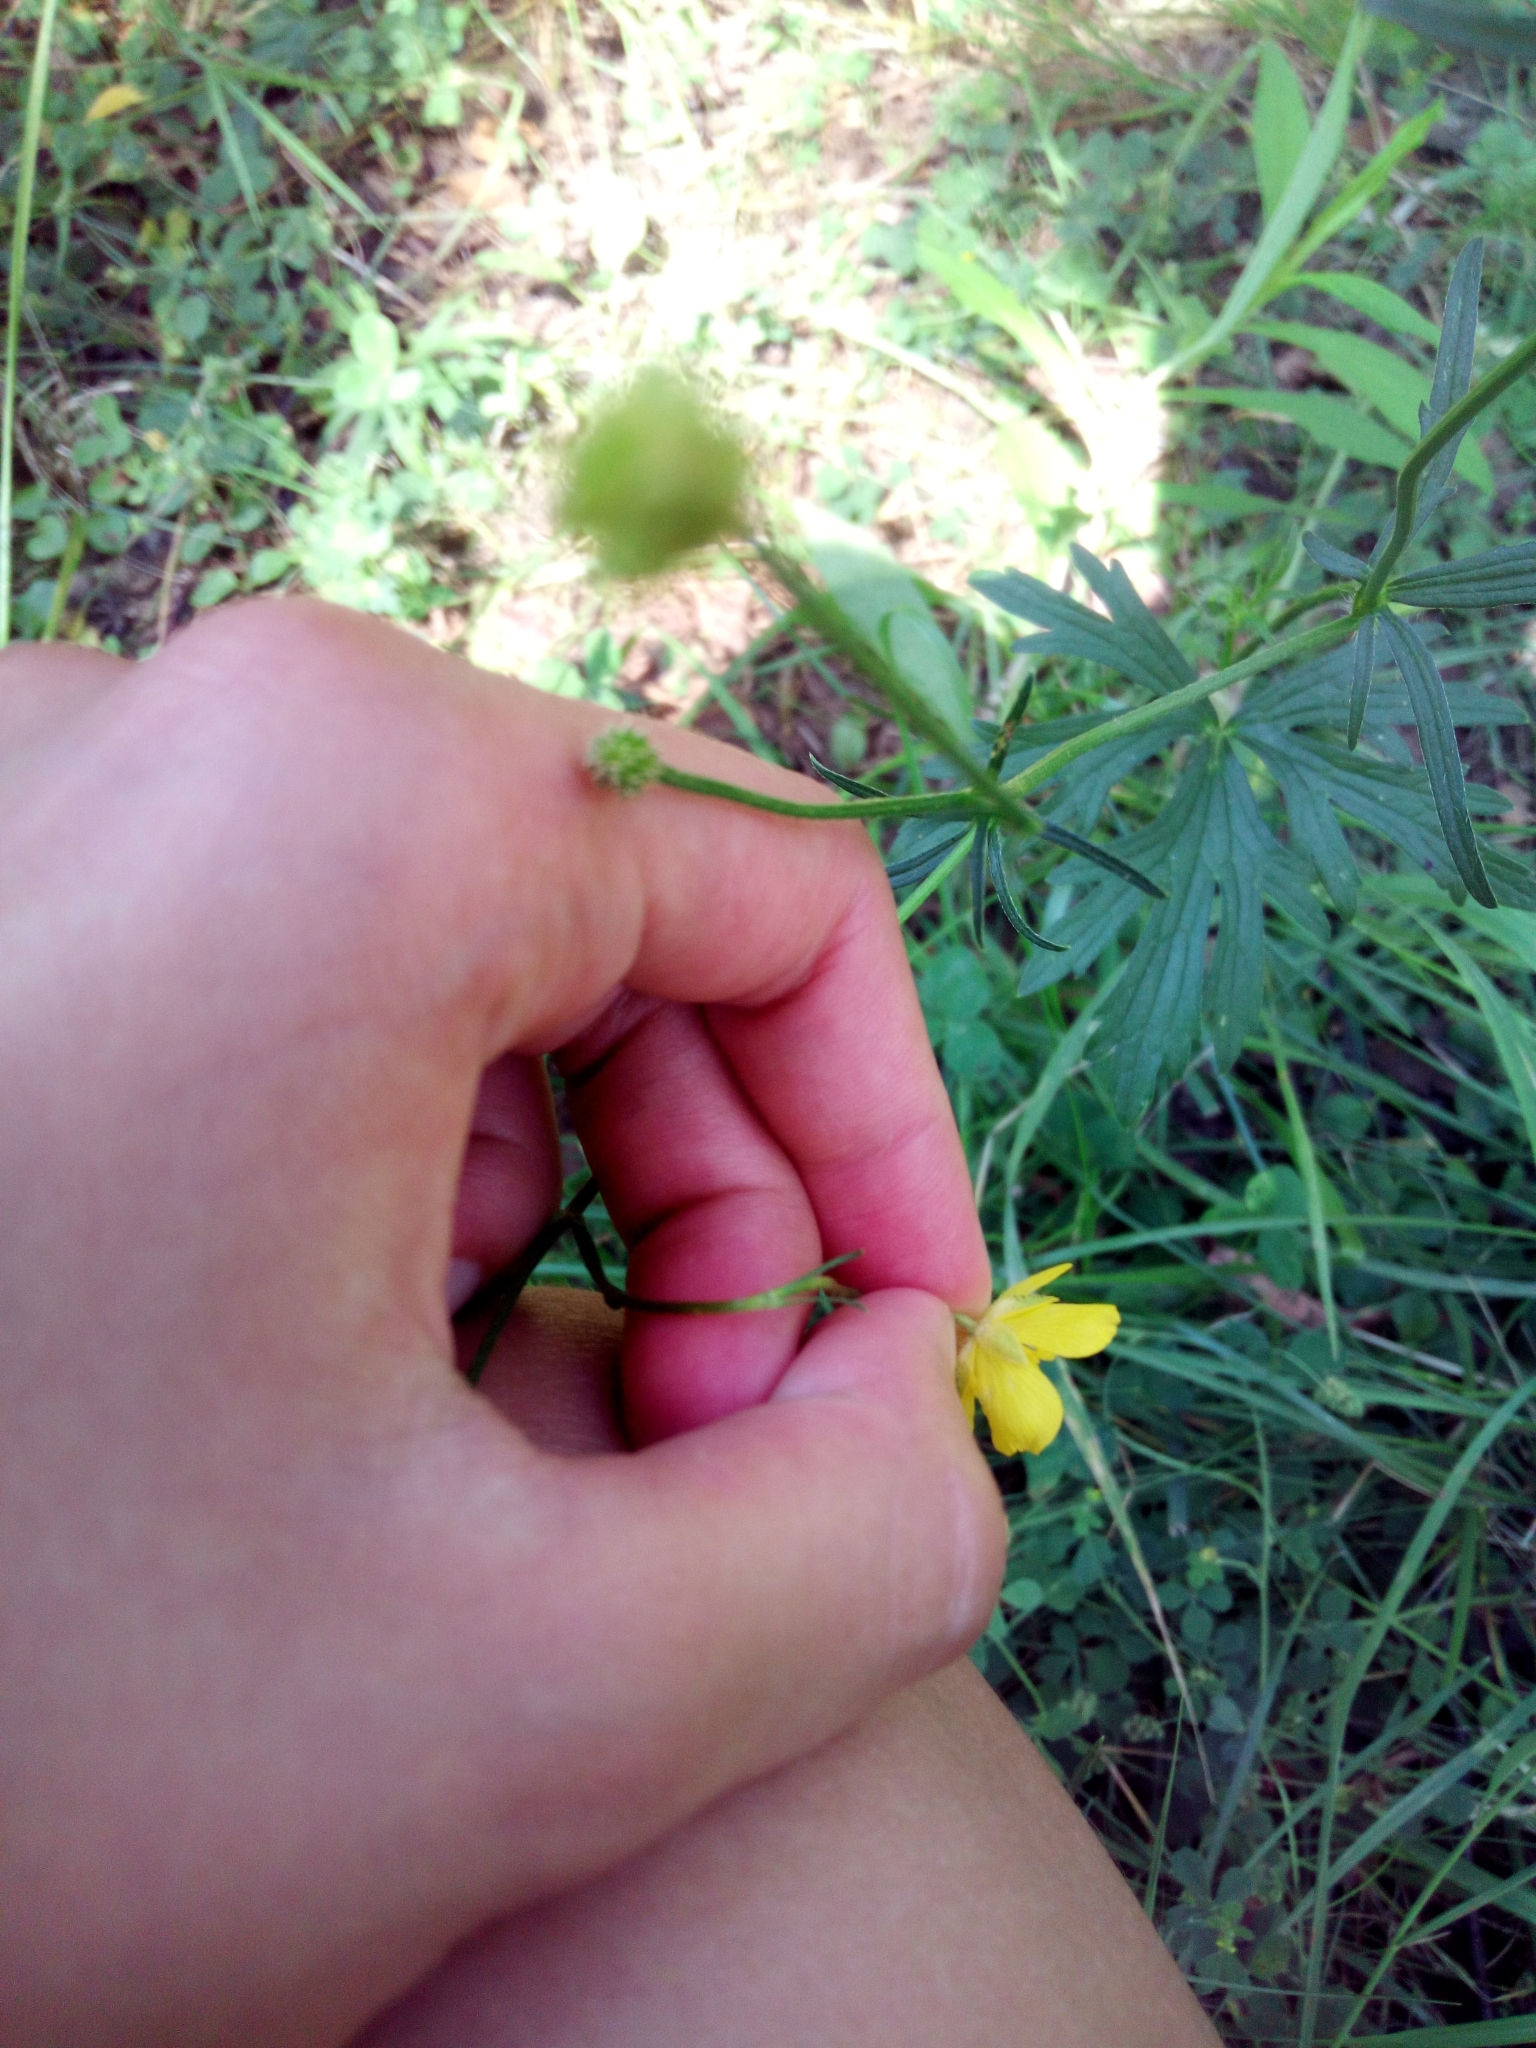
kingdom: Plantae
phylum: Tracheophyta
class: Magnoliopsida
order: Ranunculales
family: Ranunculaceae
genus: Ranunculus
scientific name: Ranunculus polyanthemos
